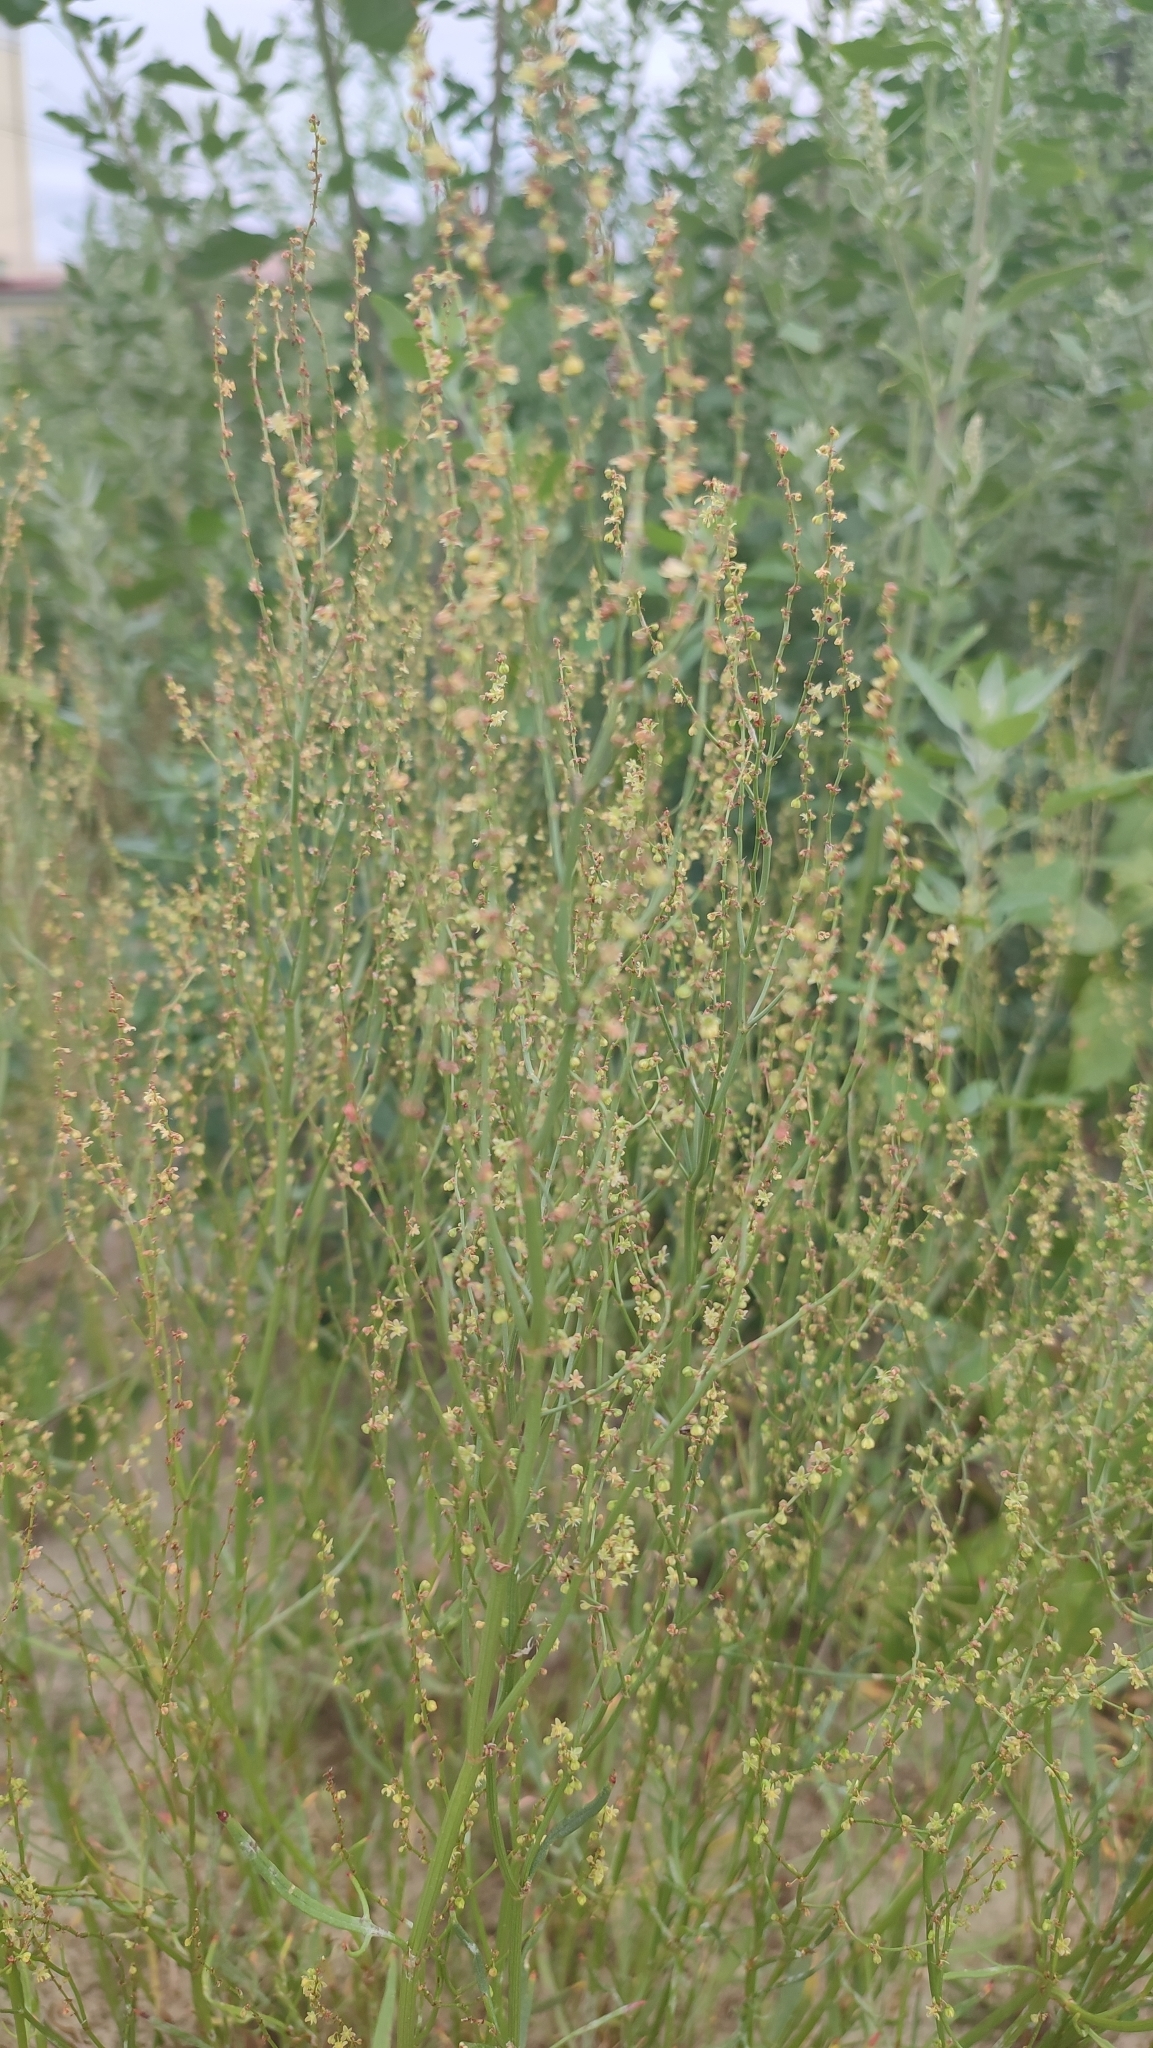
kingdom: Plantae
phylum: Tracheophyta
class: Magnoliopsida
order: Caryophyllales
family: Polygonaceae
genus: Rumex
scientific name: Rumex acetosella
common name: Common sheep sorrel
